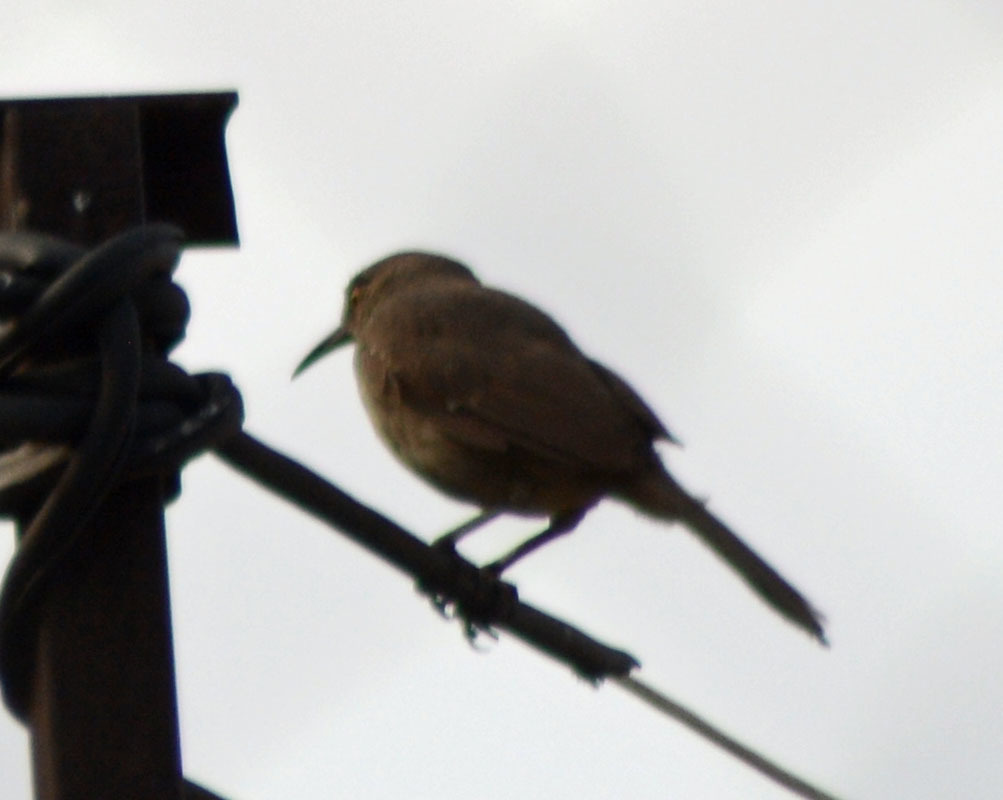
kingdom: Animalia
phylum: Chordata
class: Aves
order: Passeriformes
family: Mimidae
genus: Toxostoma
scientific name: Toxostoma curvirostre
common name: Curve-billed thrasher
